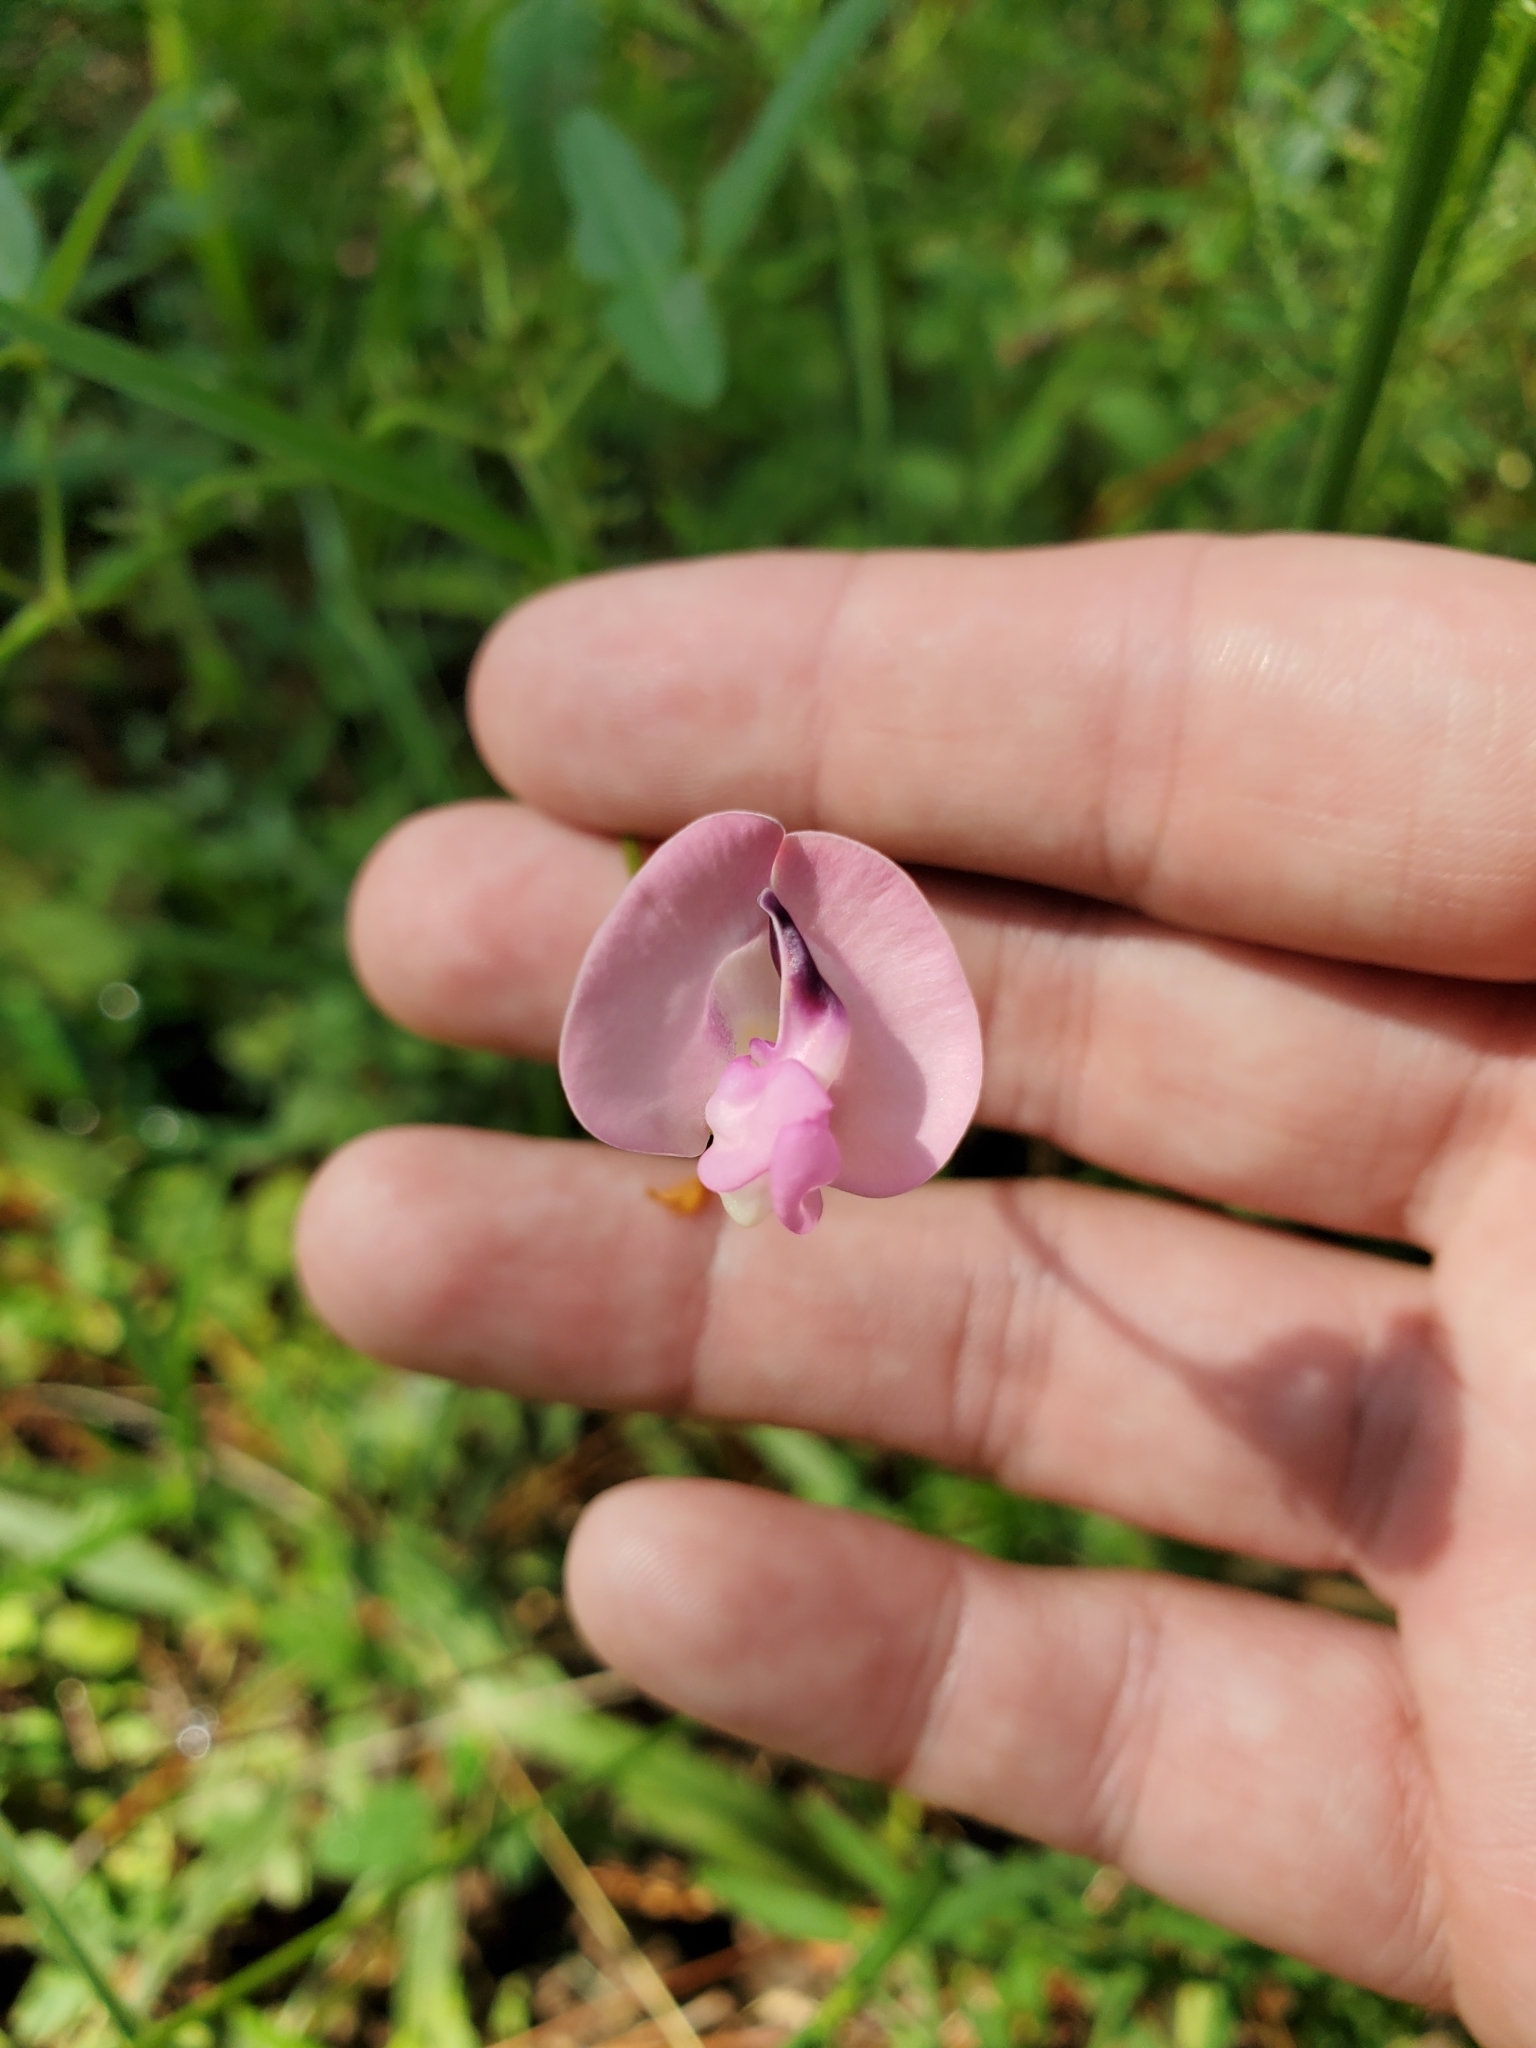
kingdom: Plantae
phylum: Tracheophyta
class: Magnoliopsida
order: Fabales
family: Fabaceae
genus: Strophostyles
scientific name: Strophostyles umbellata
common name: Perennial wild bean
